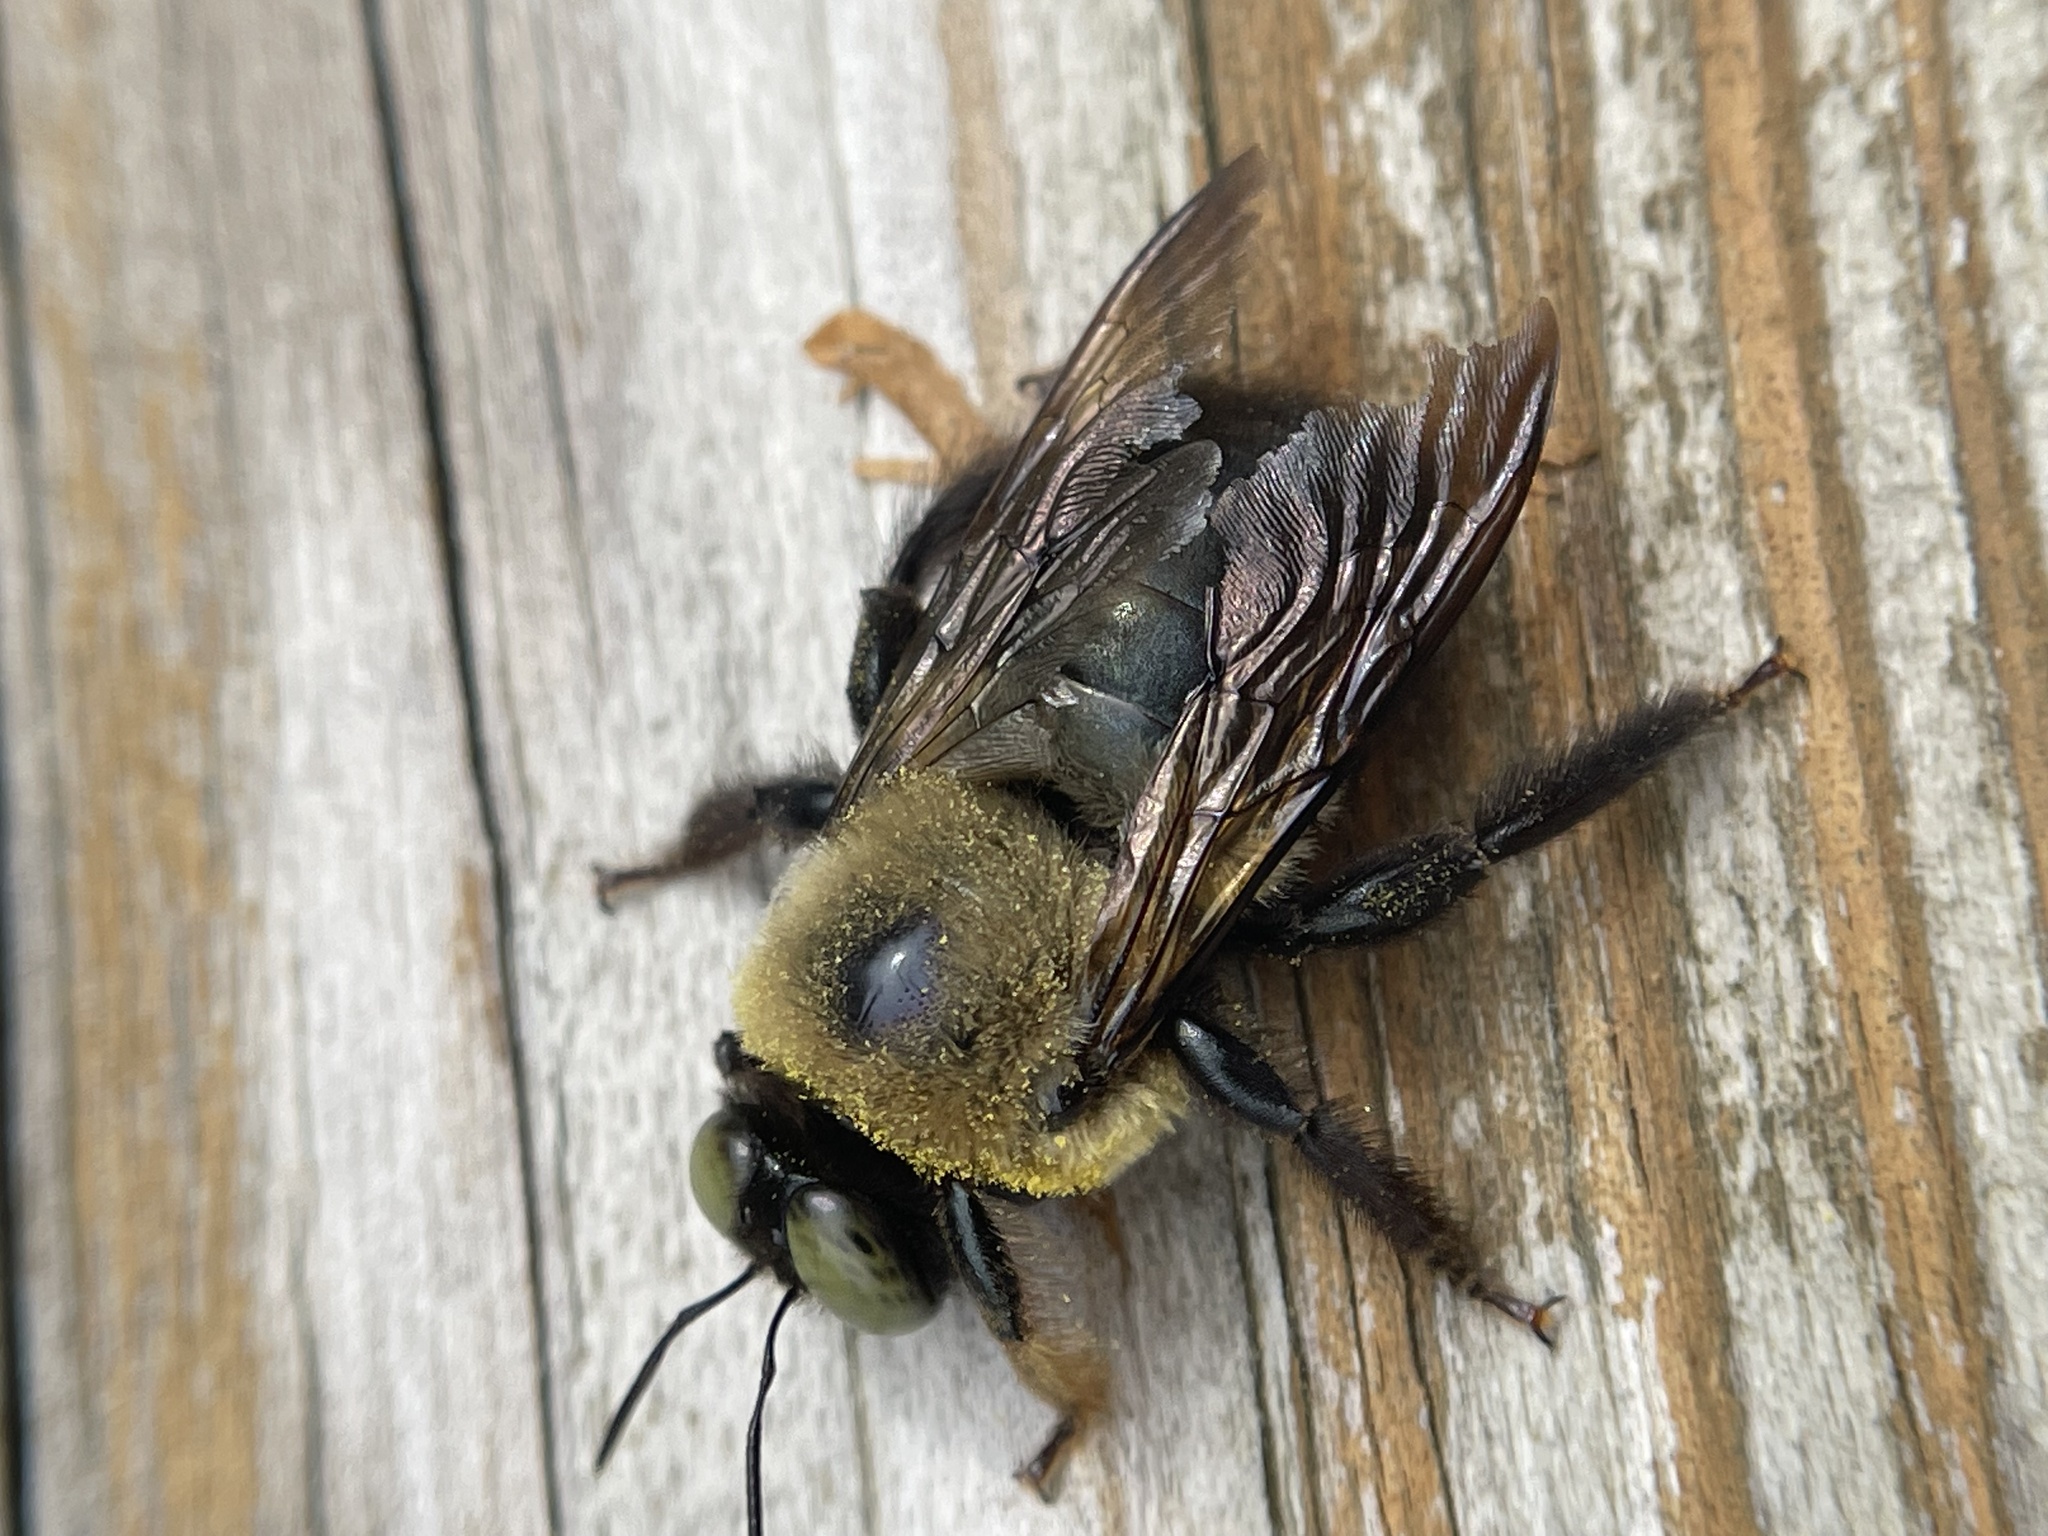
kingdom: Animalia
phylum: Arthropoda
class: Insecta
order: Hymenoptera
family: Apidae
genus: Xylocopa
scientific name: Xylocopa virginica
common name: Carpenter bee
